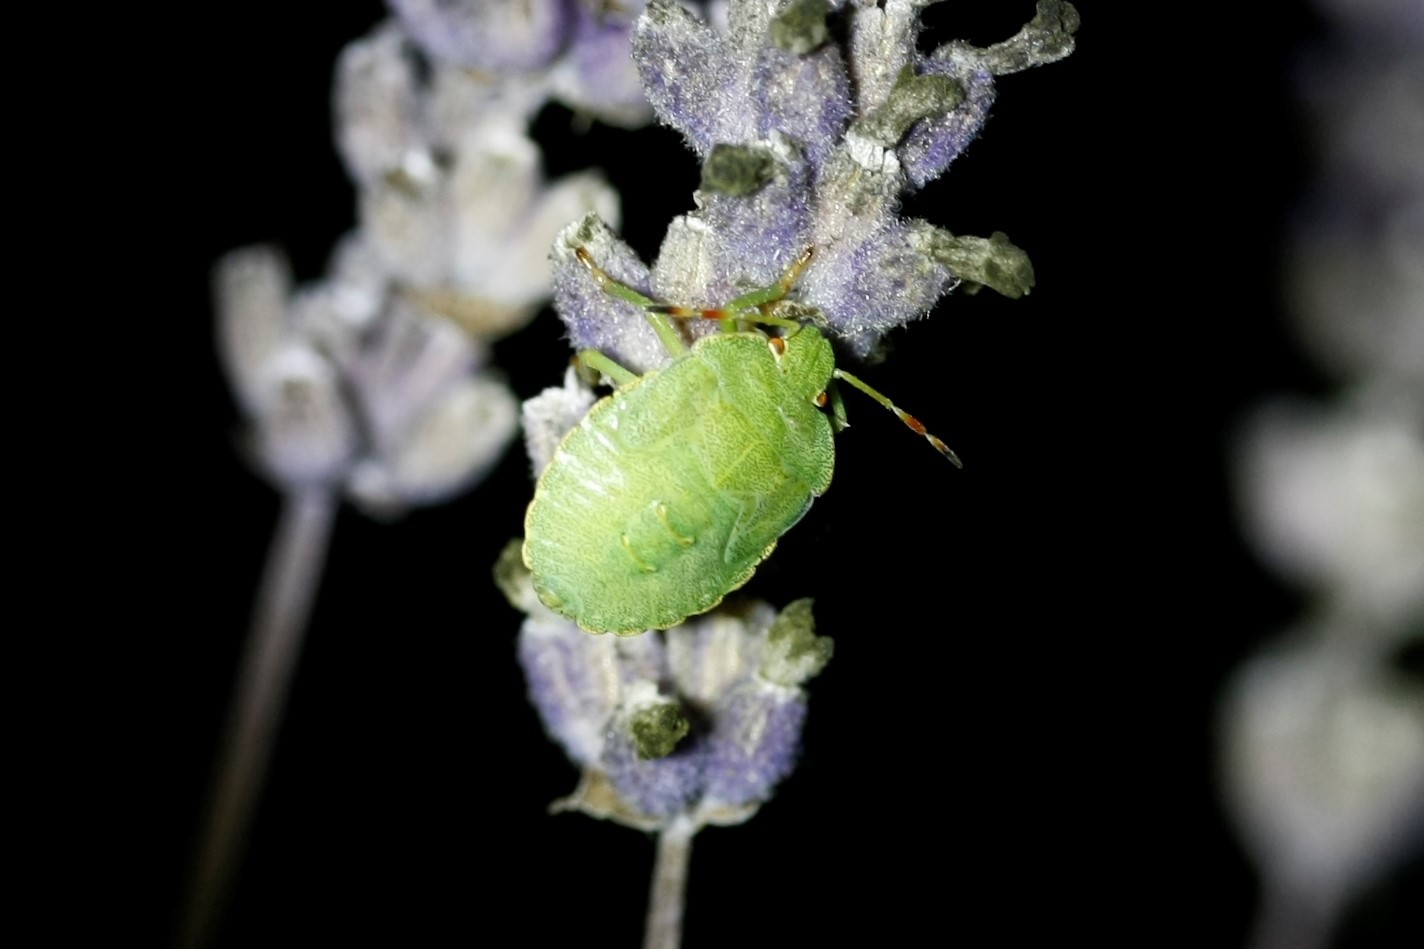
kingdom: Animalia
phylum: Arthropoda
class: Insecta
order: Hemiptera
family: Pentatomidae
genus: Palomena
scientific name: Palomena prasina
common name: Green shieldbug
